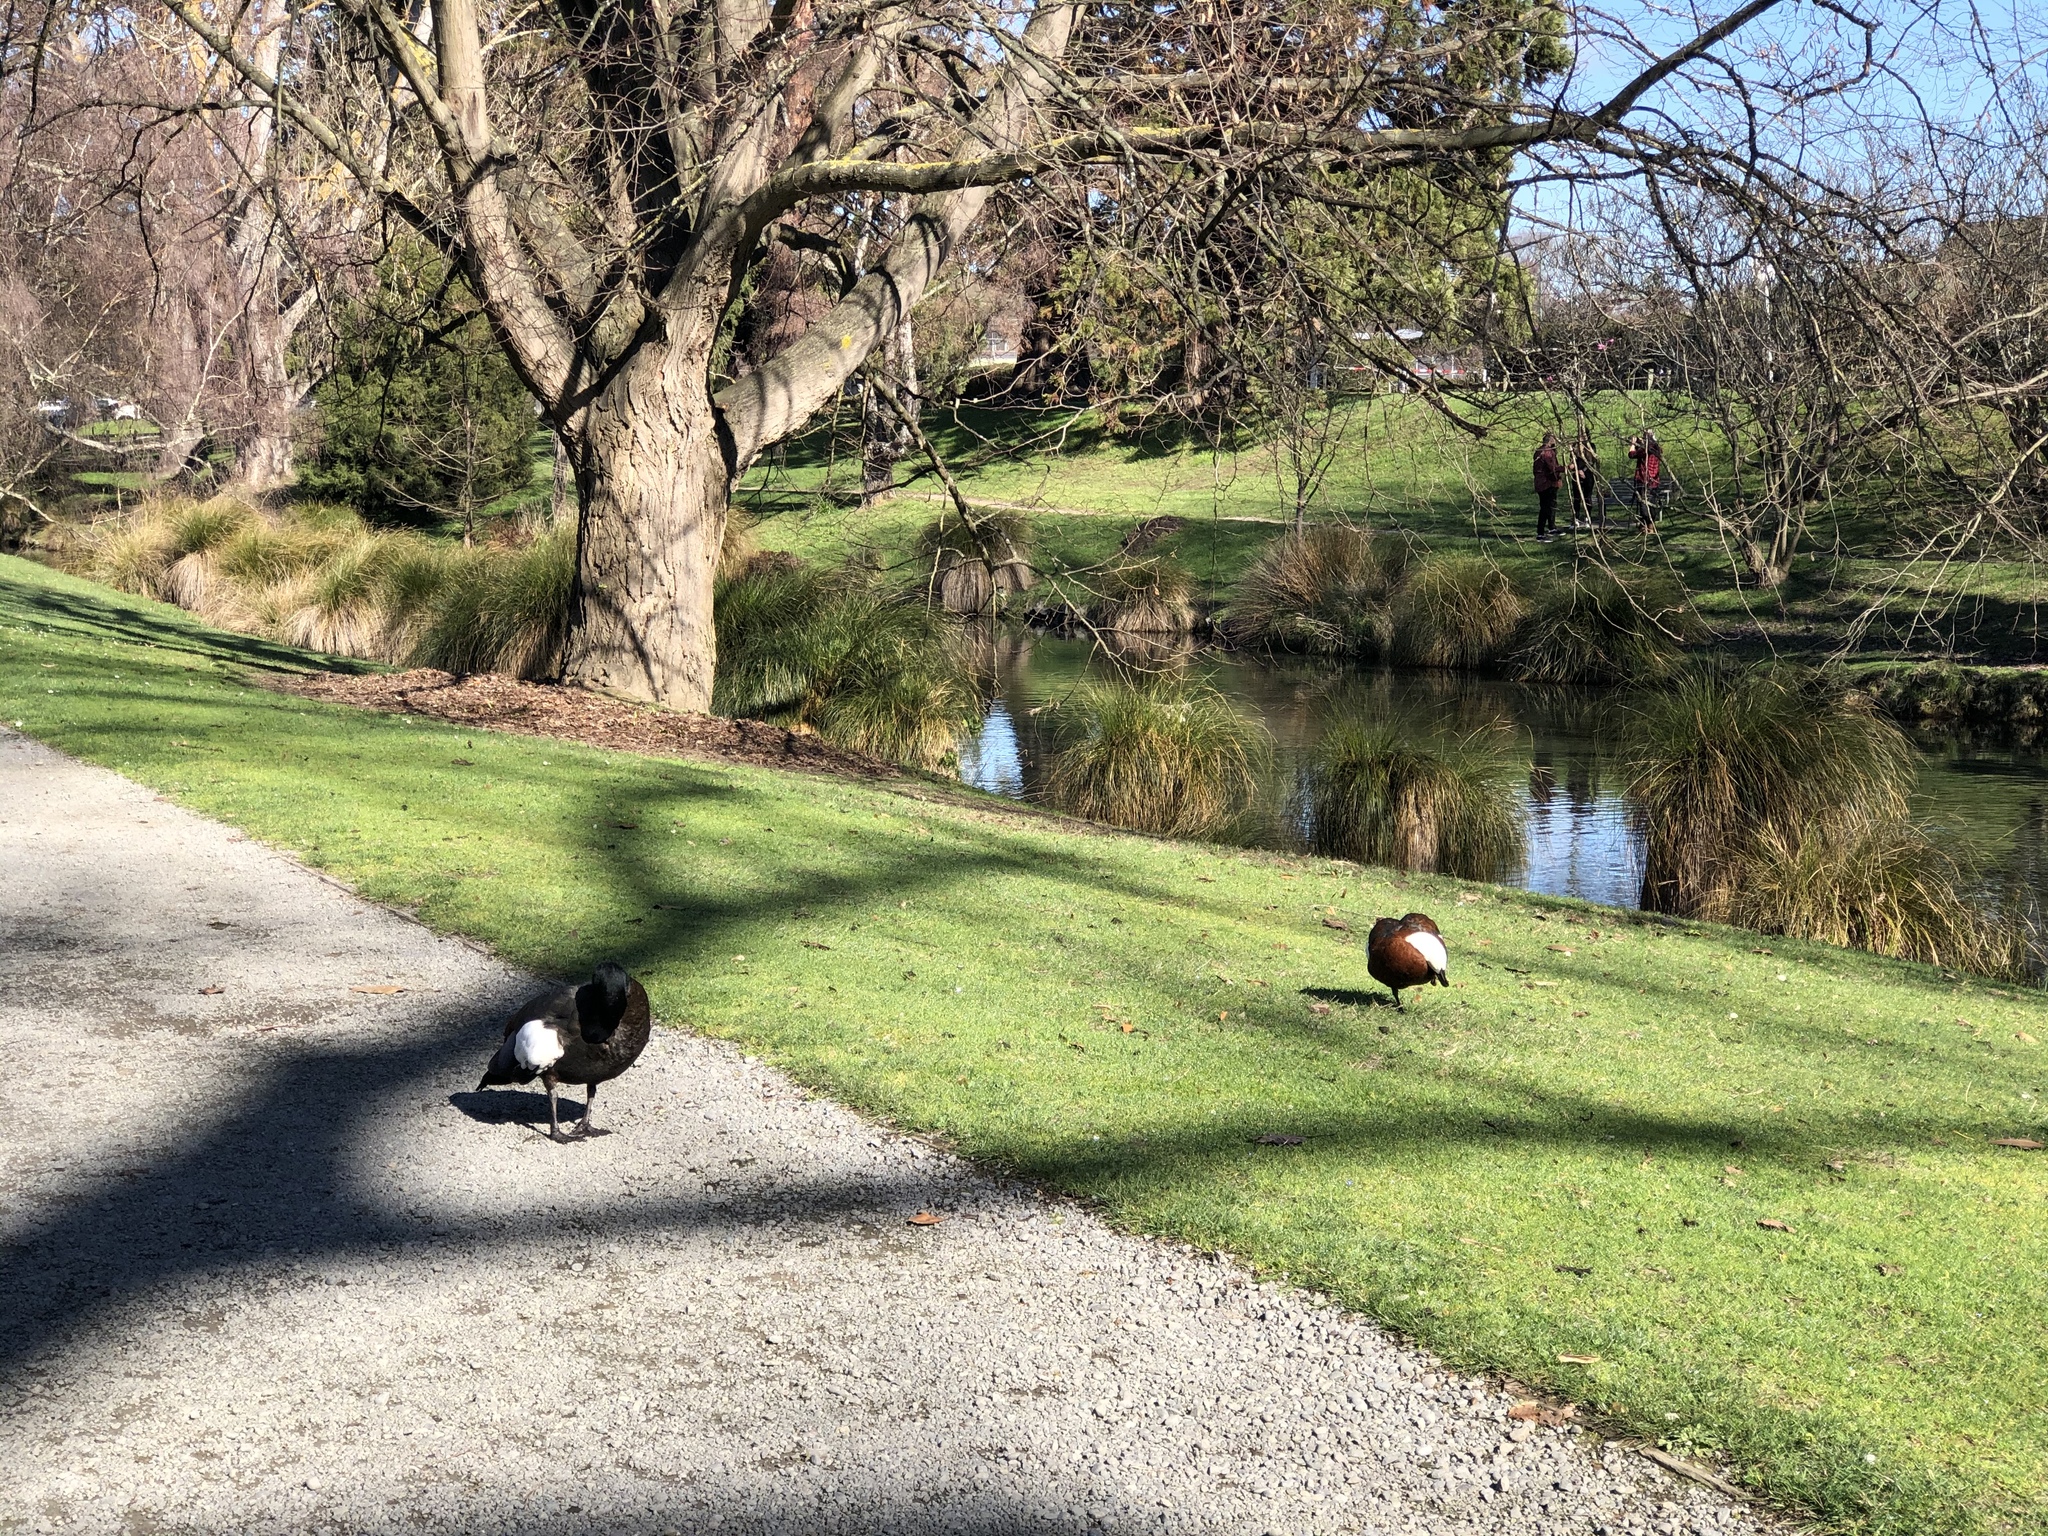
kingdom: Animalia
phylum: Chordata
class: Aves
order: Anseriformes
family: Anatidae
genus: Tadorna
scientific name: Tadorna variegata
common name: Paradise shelduck
